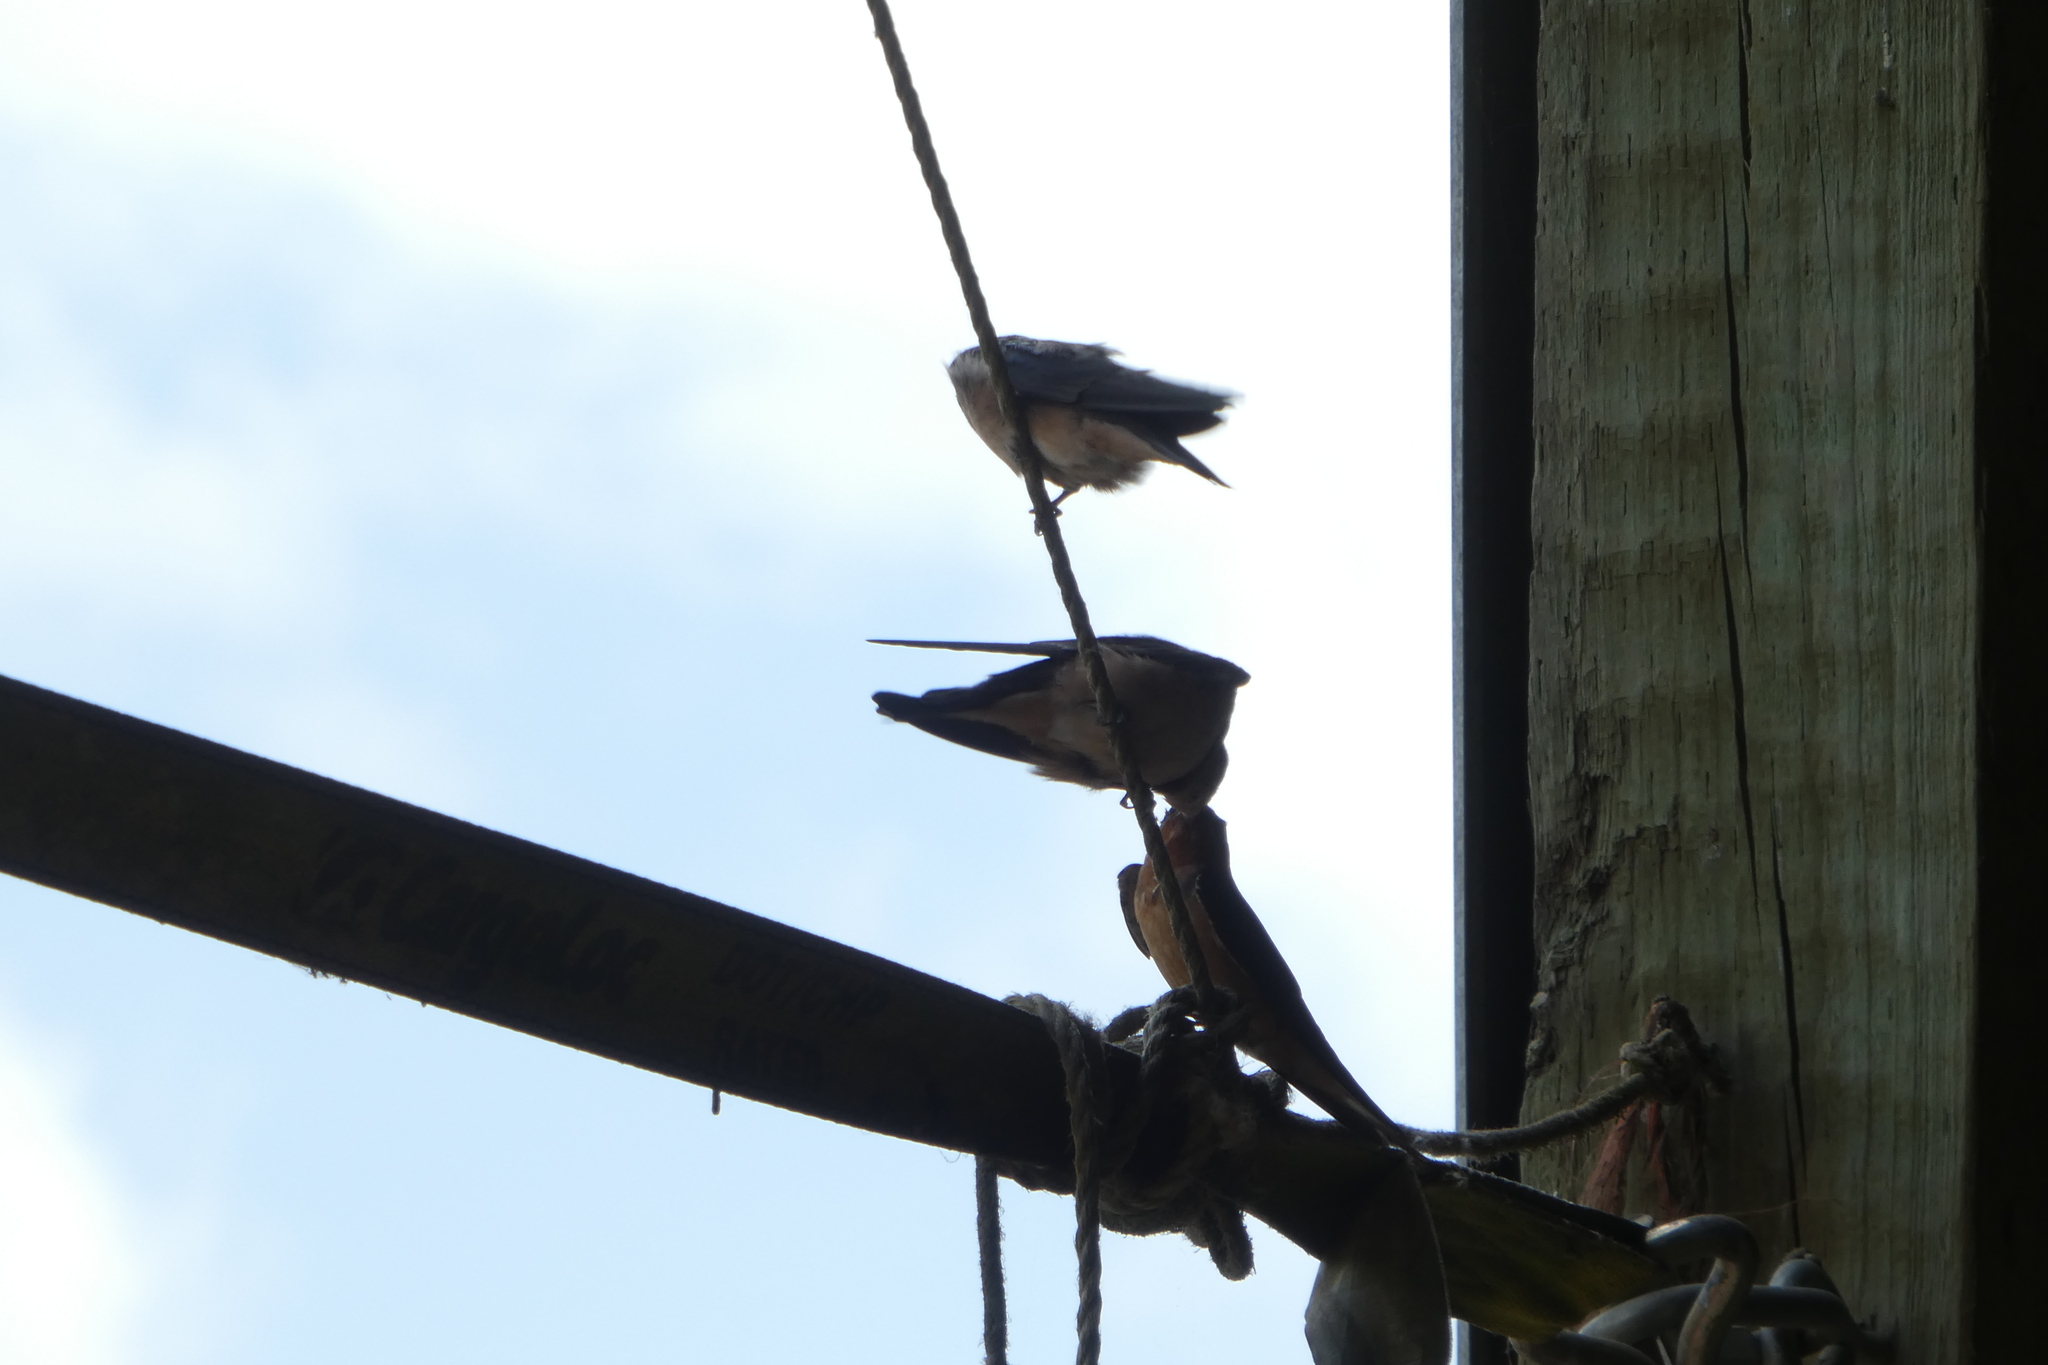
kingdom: Animalia
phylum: Chordata
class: Aves
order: Passeriformes
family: Hirundinidae
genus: Hirundo
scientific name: Hirundo rustica
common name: Barn swallow
